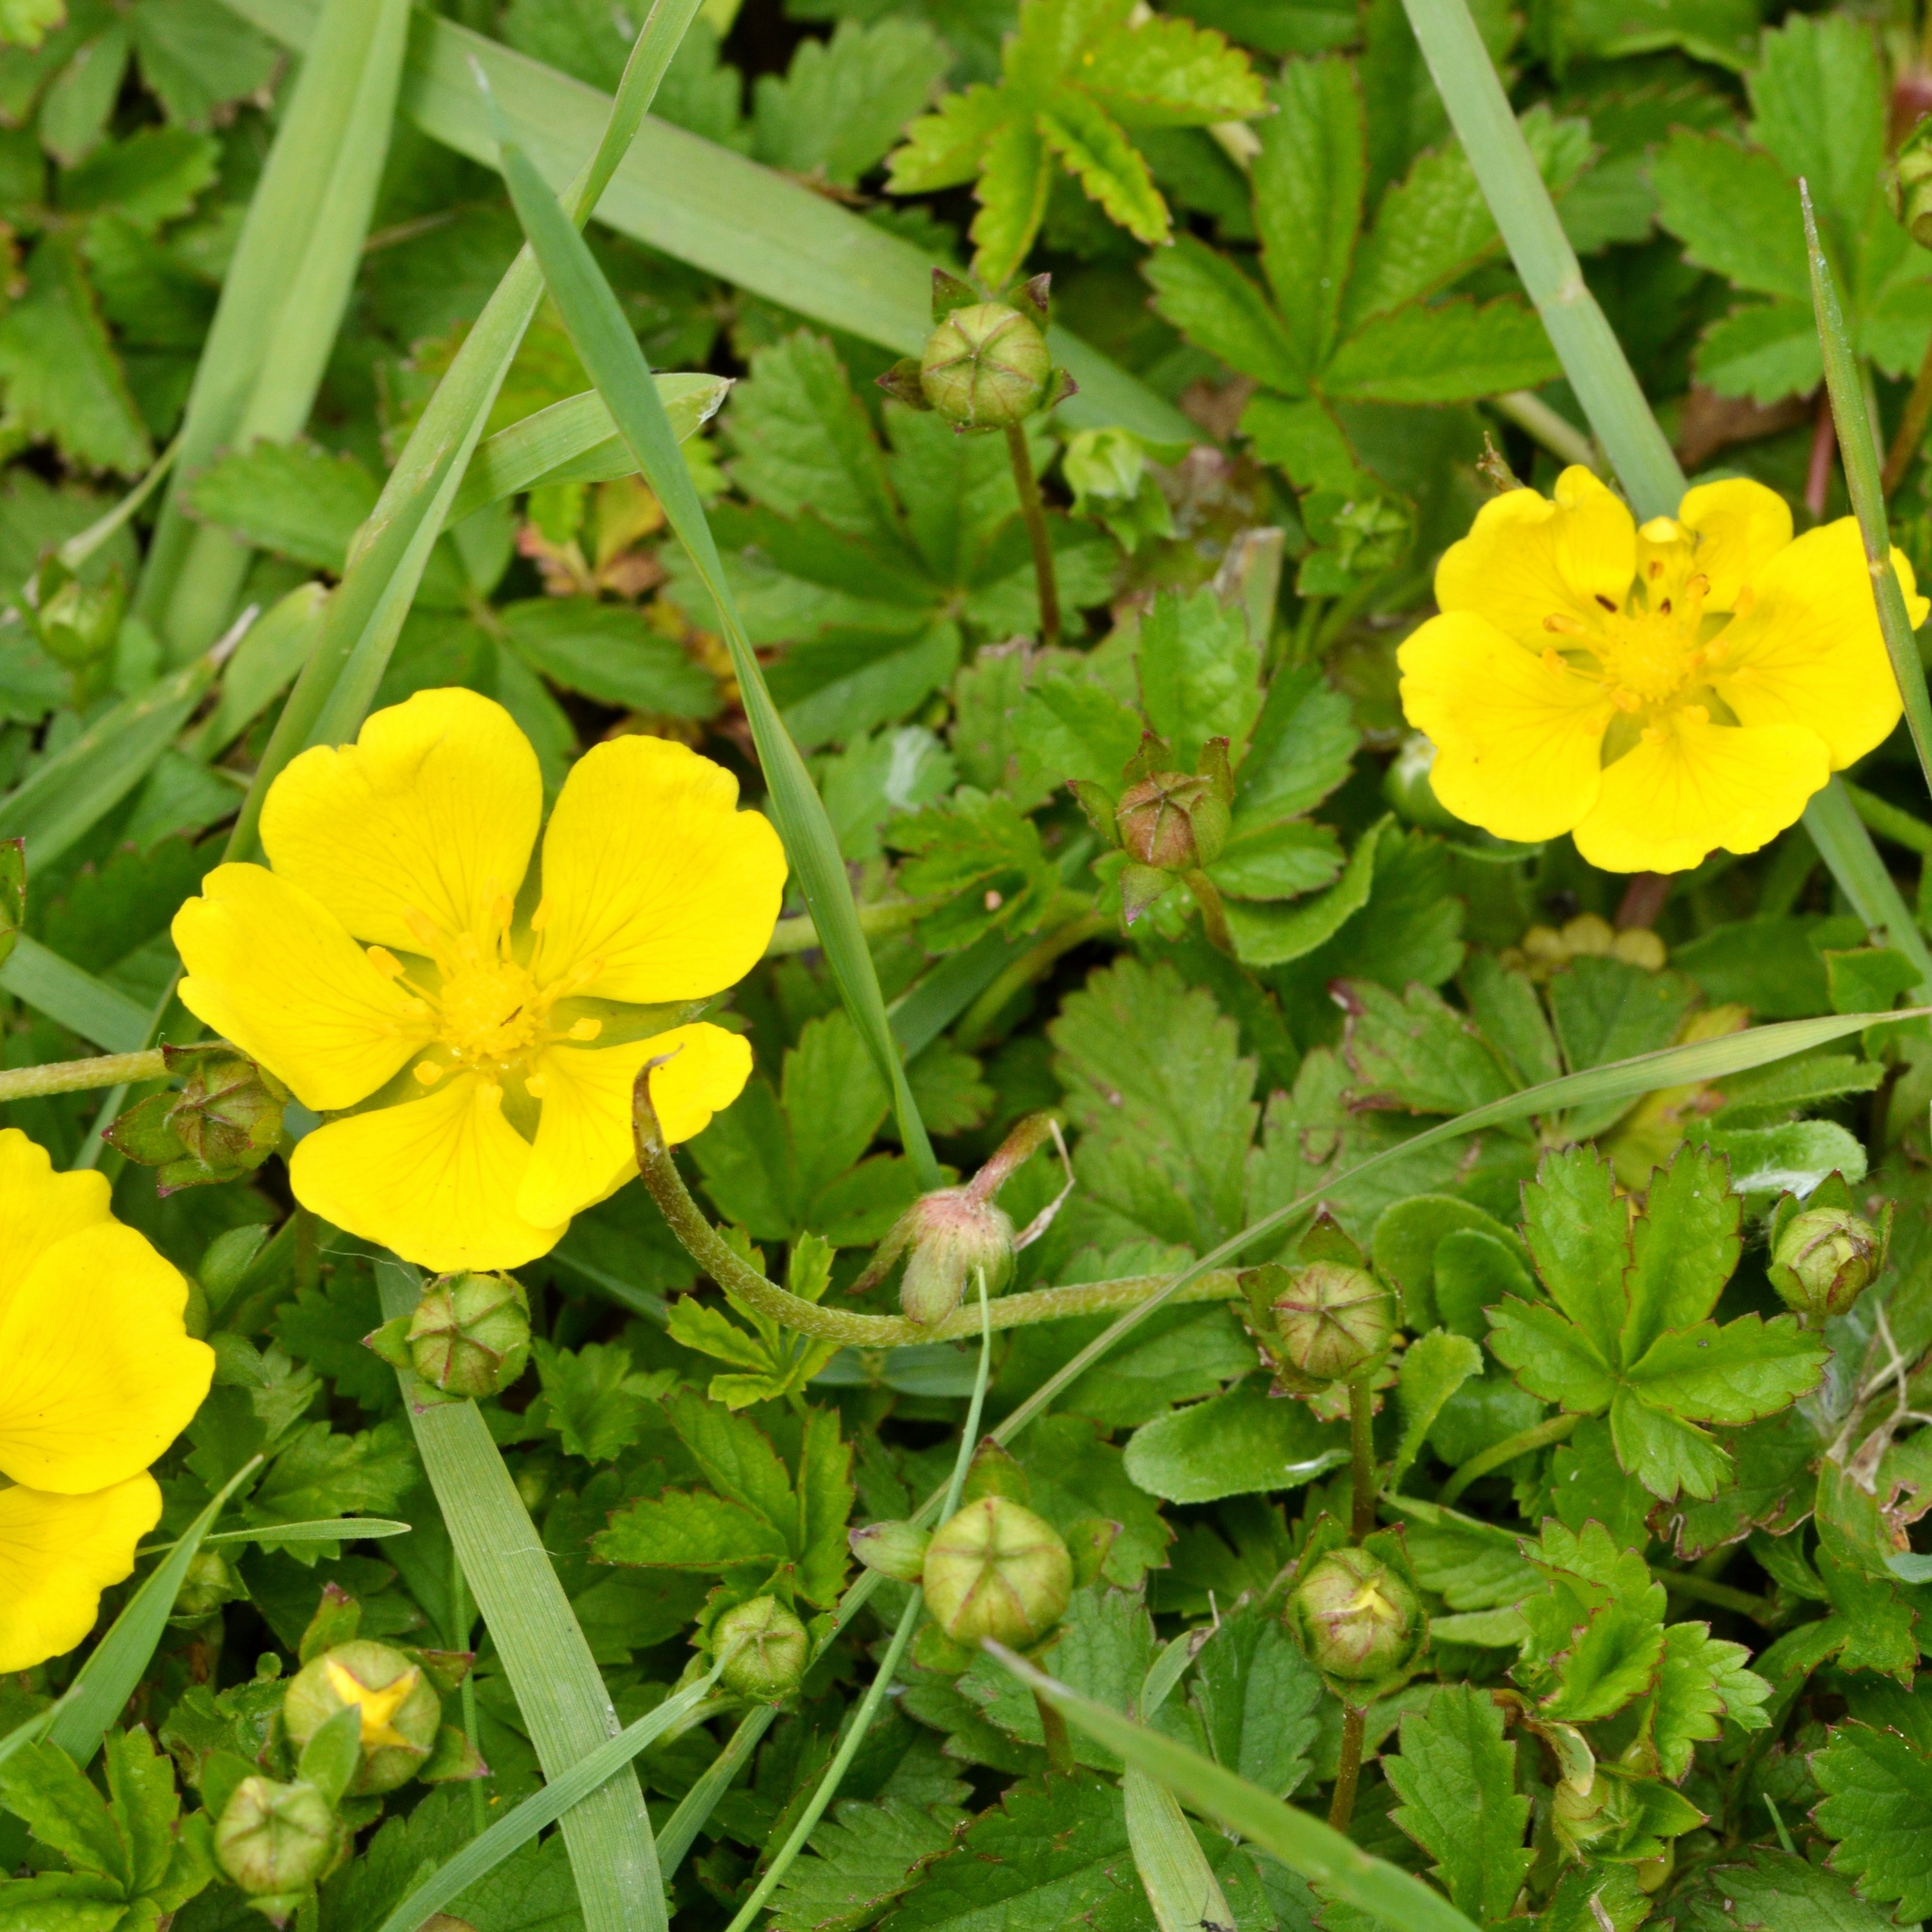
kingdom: Plantae
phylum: Tracheophyta
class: Magnoliopsida
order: Rosales
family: Rosaceae
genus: Potentilla
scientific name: Potentilla reptans
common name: Creeping cinquefoil
